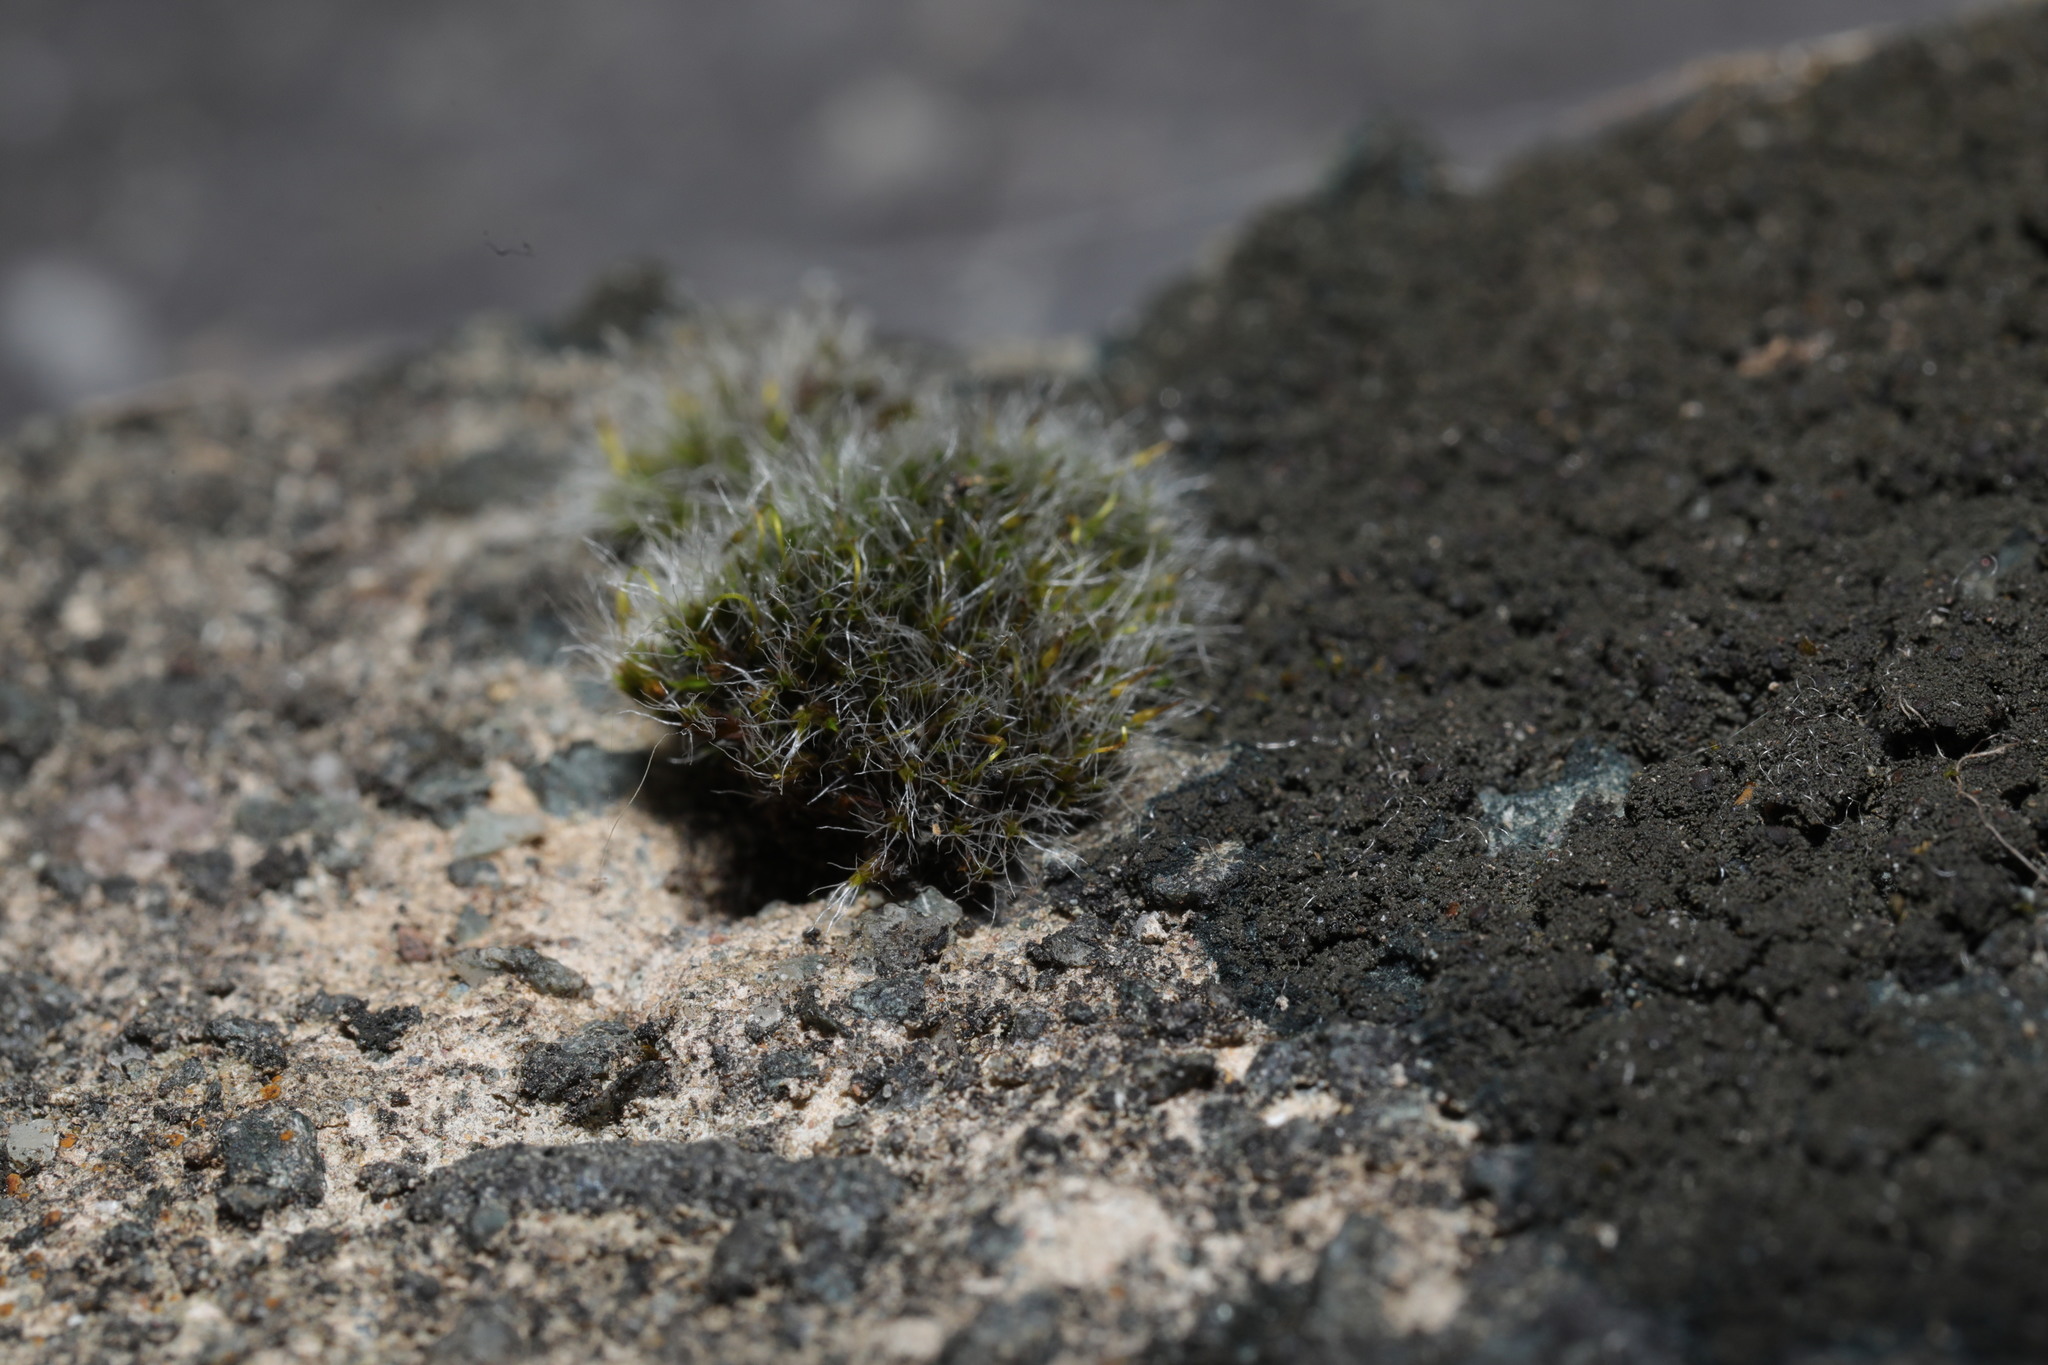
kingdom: Plantae
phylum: Bryophyta
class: Bryopsida
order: Grimmiales
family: Grimmiaceae
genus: Grimmia
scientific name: Grimmia pulvinata
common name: Grey-cushioned grimmia
